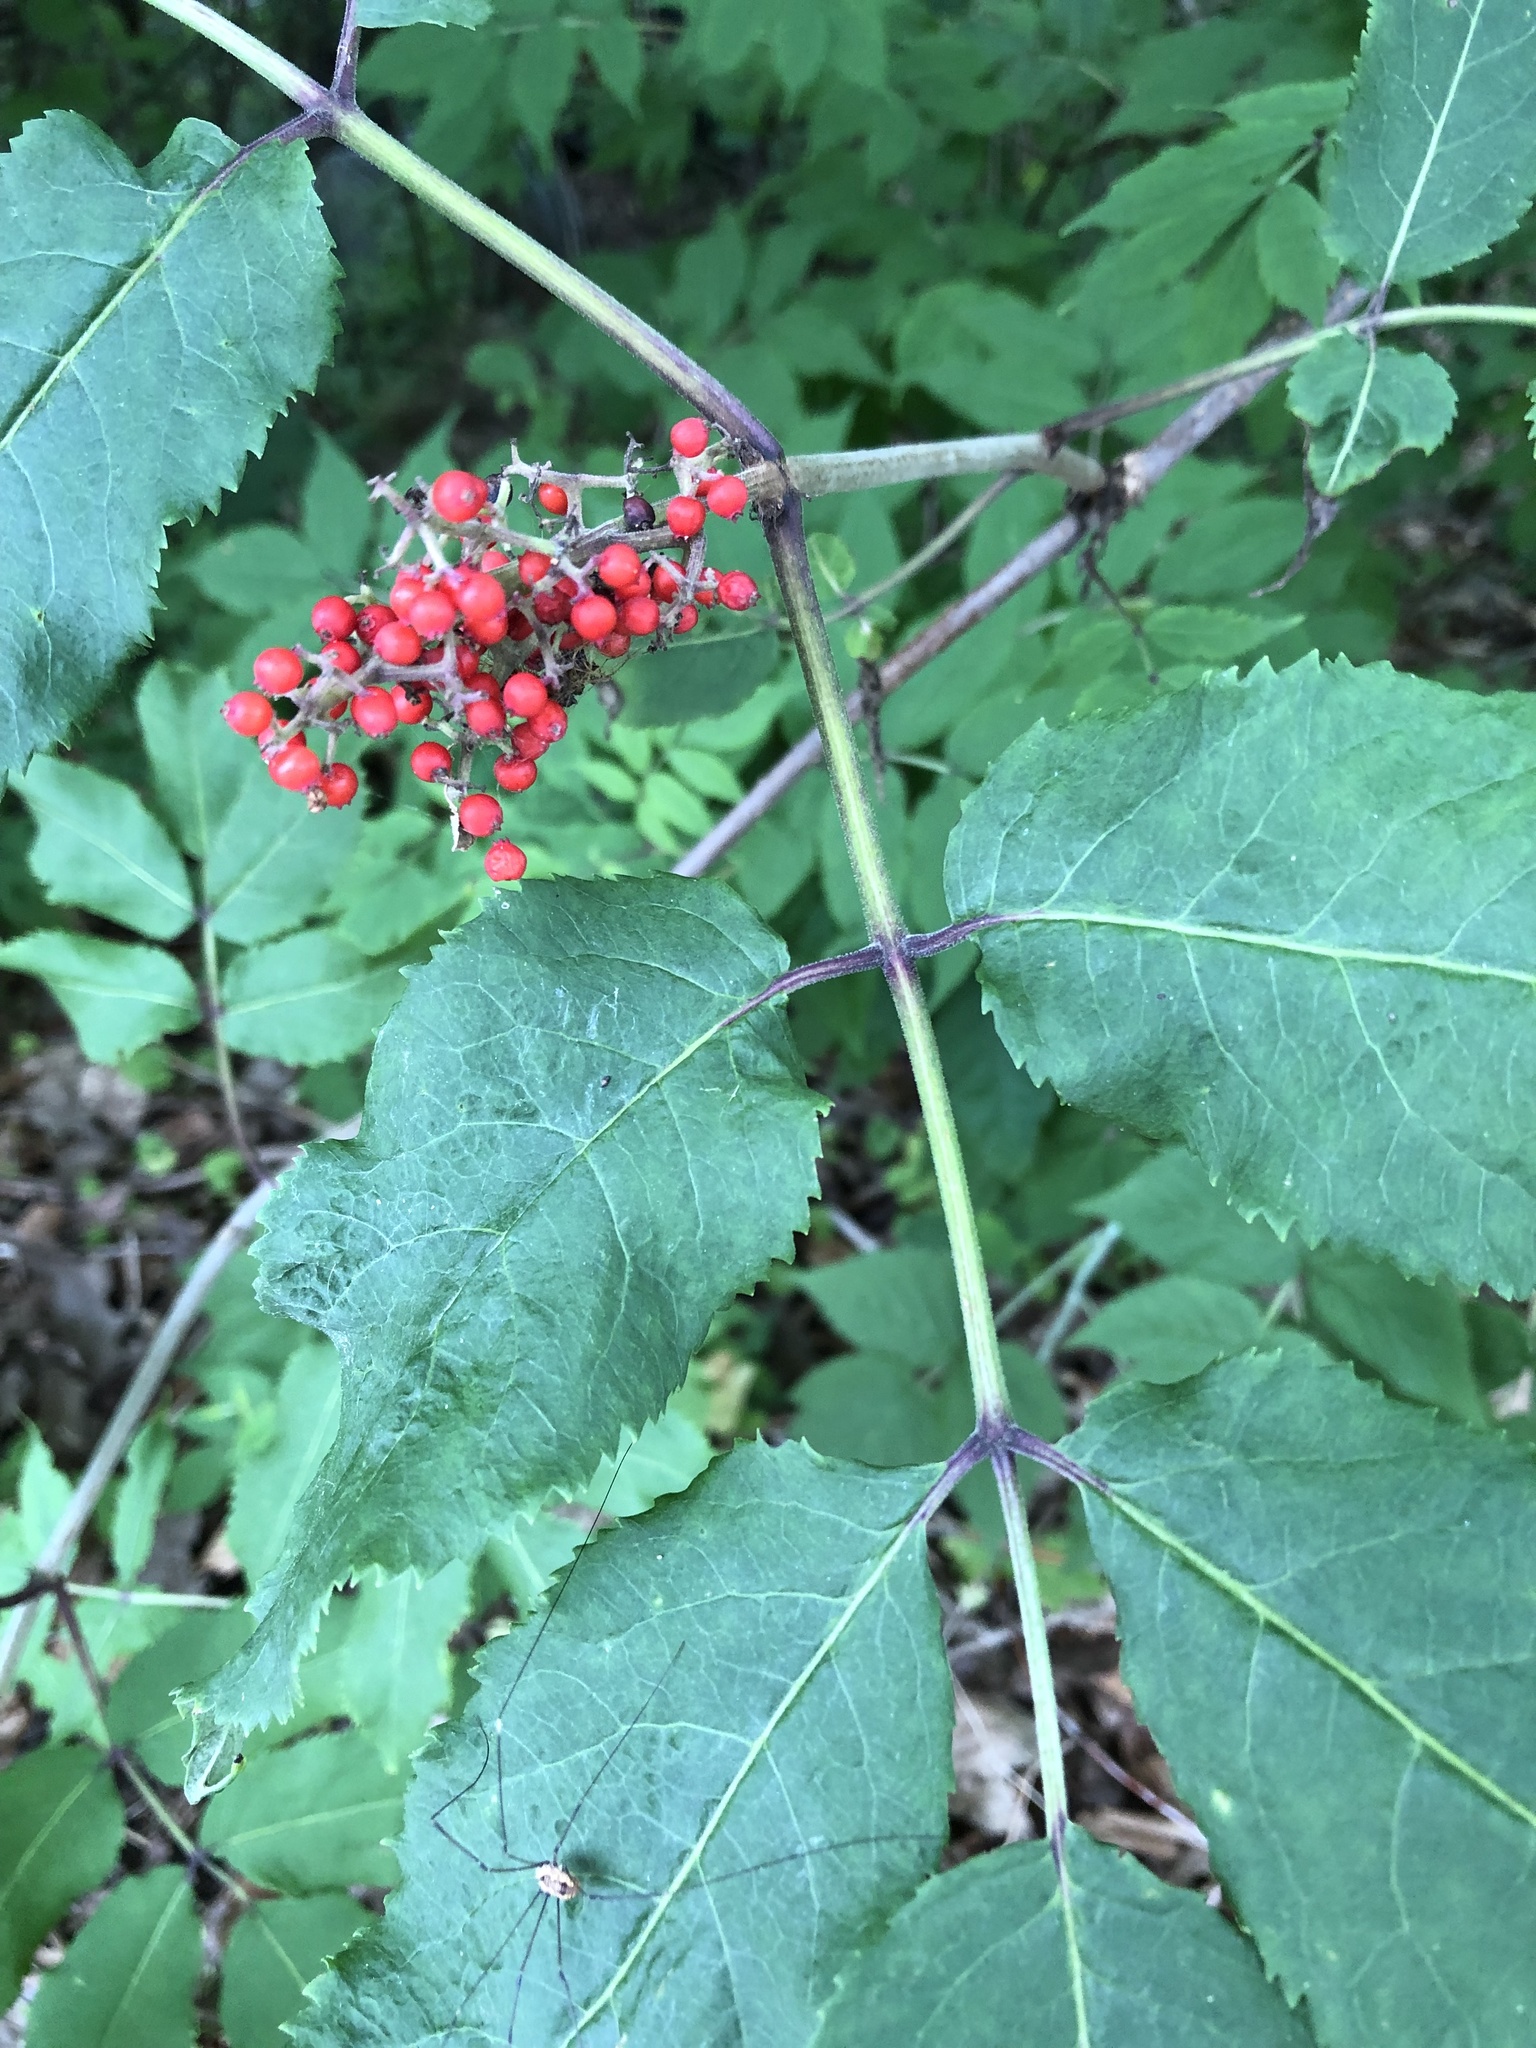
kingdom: Plantae
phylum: Tracheophyta
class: Magnoliopsida
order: Dipsacales
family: Viburnaceae
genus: Sambucus
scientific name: Sambucus racemosa
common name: Red-berried elder
